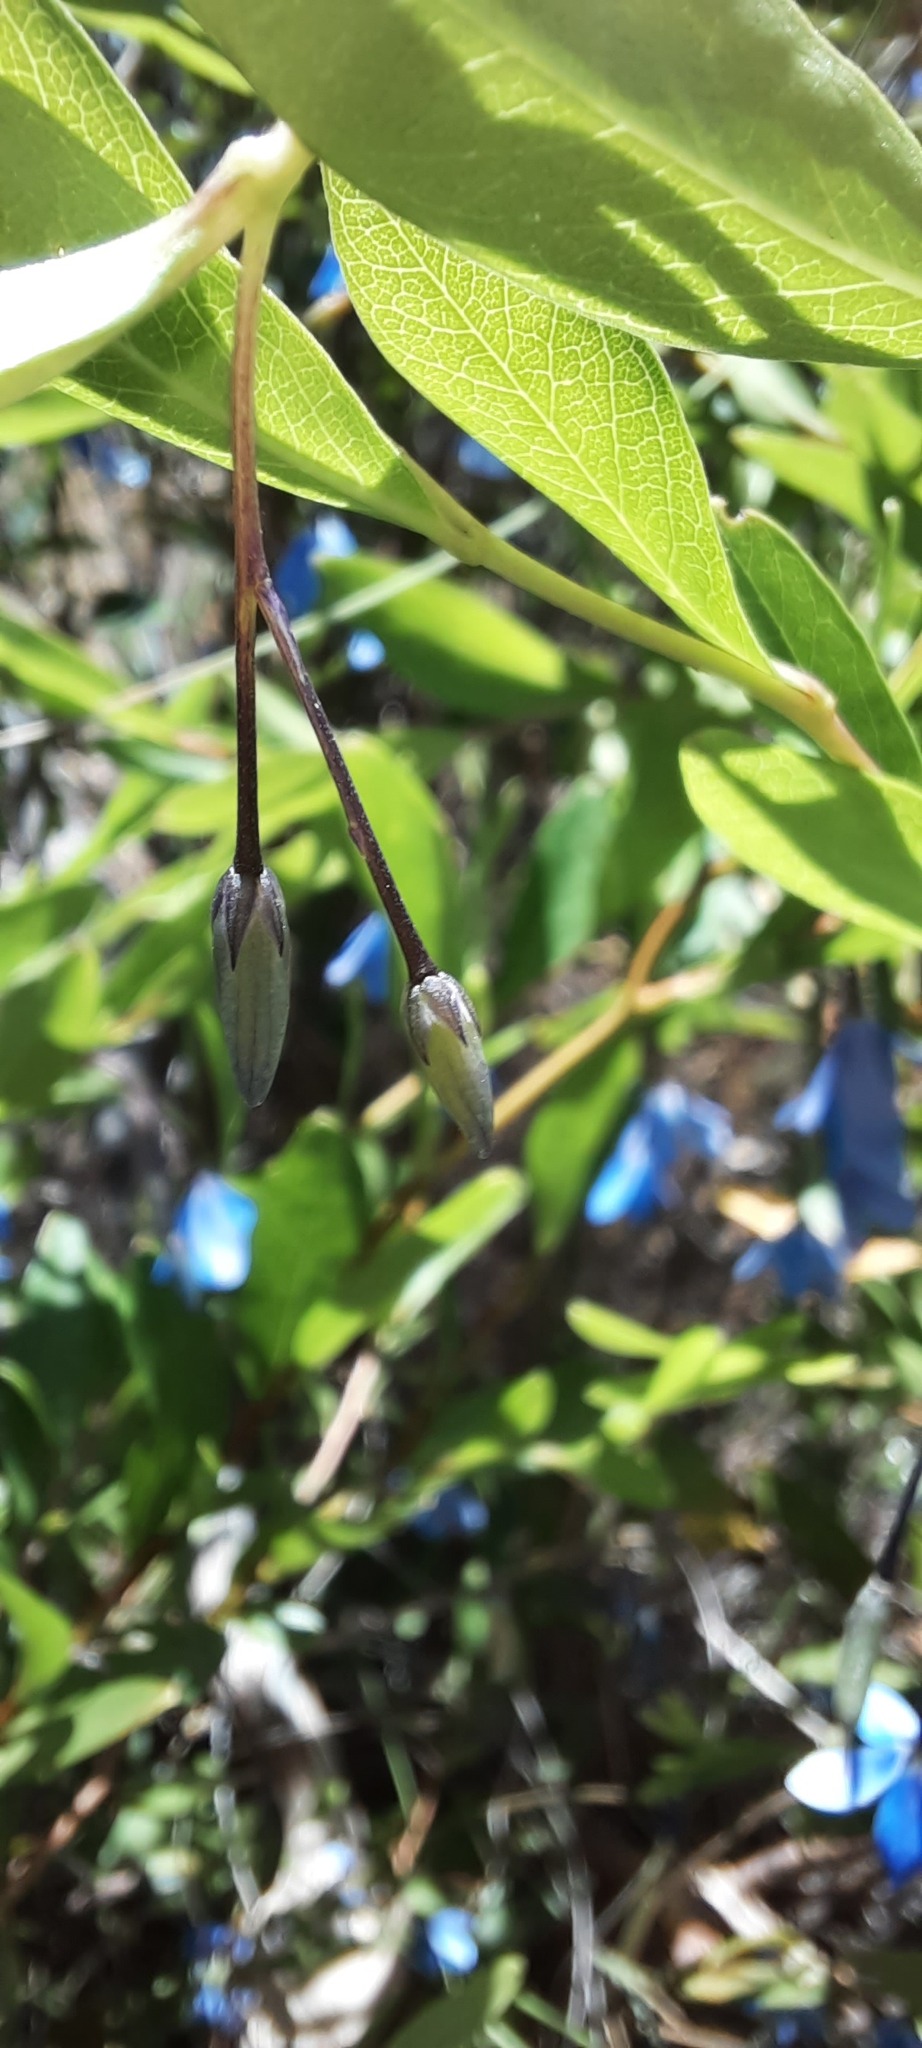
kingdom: Plantae
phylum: Tracheophyta
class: Magnoliopsida
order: Apiales
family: Pittosporaceae
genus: Billardiera
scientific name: Billardiera fusiformis
